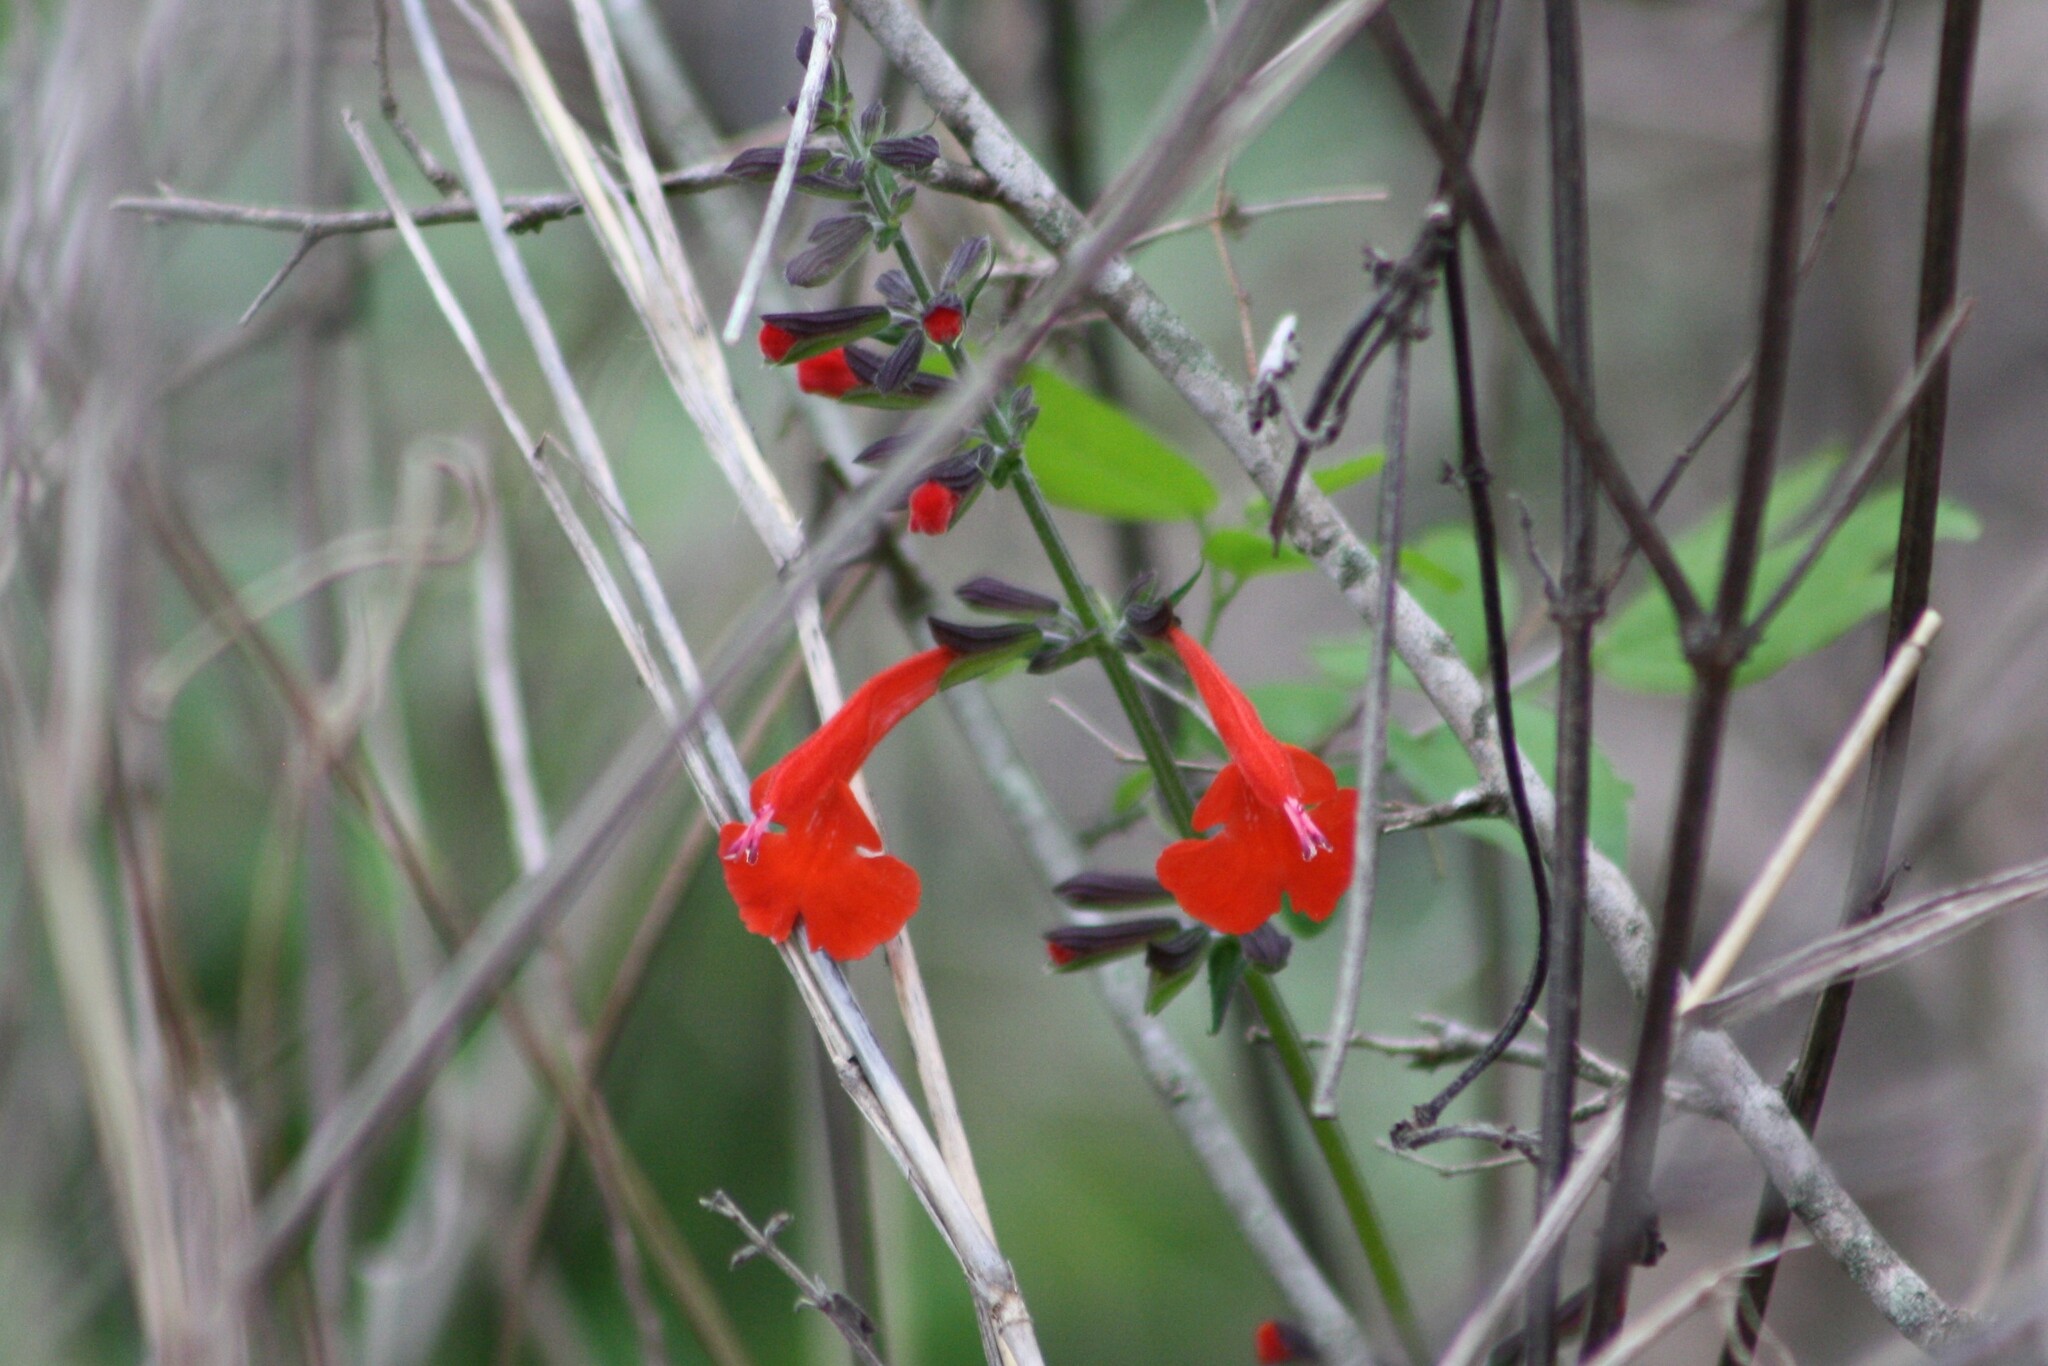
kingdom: Plantae
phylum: Tracheophyta
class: Magnoliopsida
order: Lamiales
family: Lamiaceae
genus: Salvia
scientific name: Salvia coccinea
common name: Blood sage
